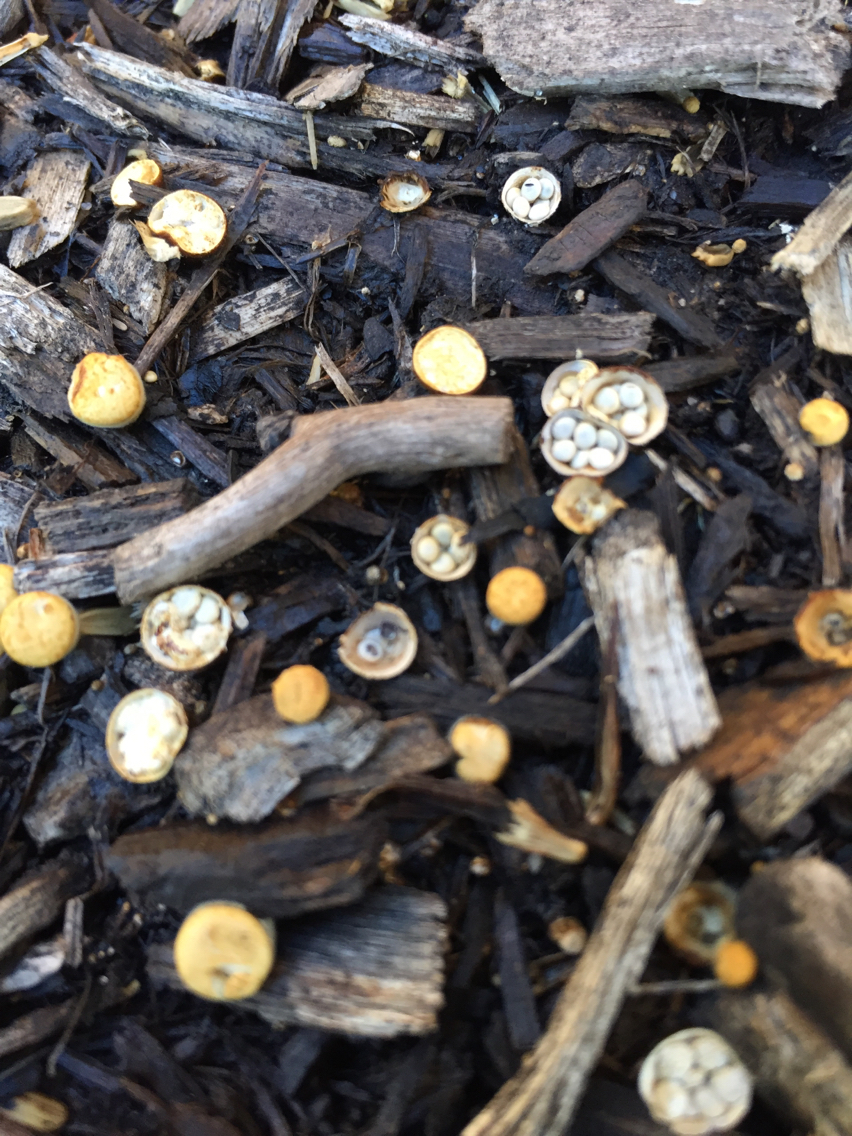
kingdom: Fungi
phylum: Basidiomycota
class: Agaricomycetes
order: Agaricales
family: Nidulariaceae
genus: Crucibulum
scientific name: Crucibulum laeve
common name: Common bird's nest
